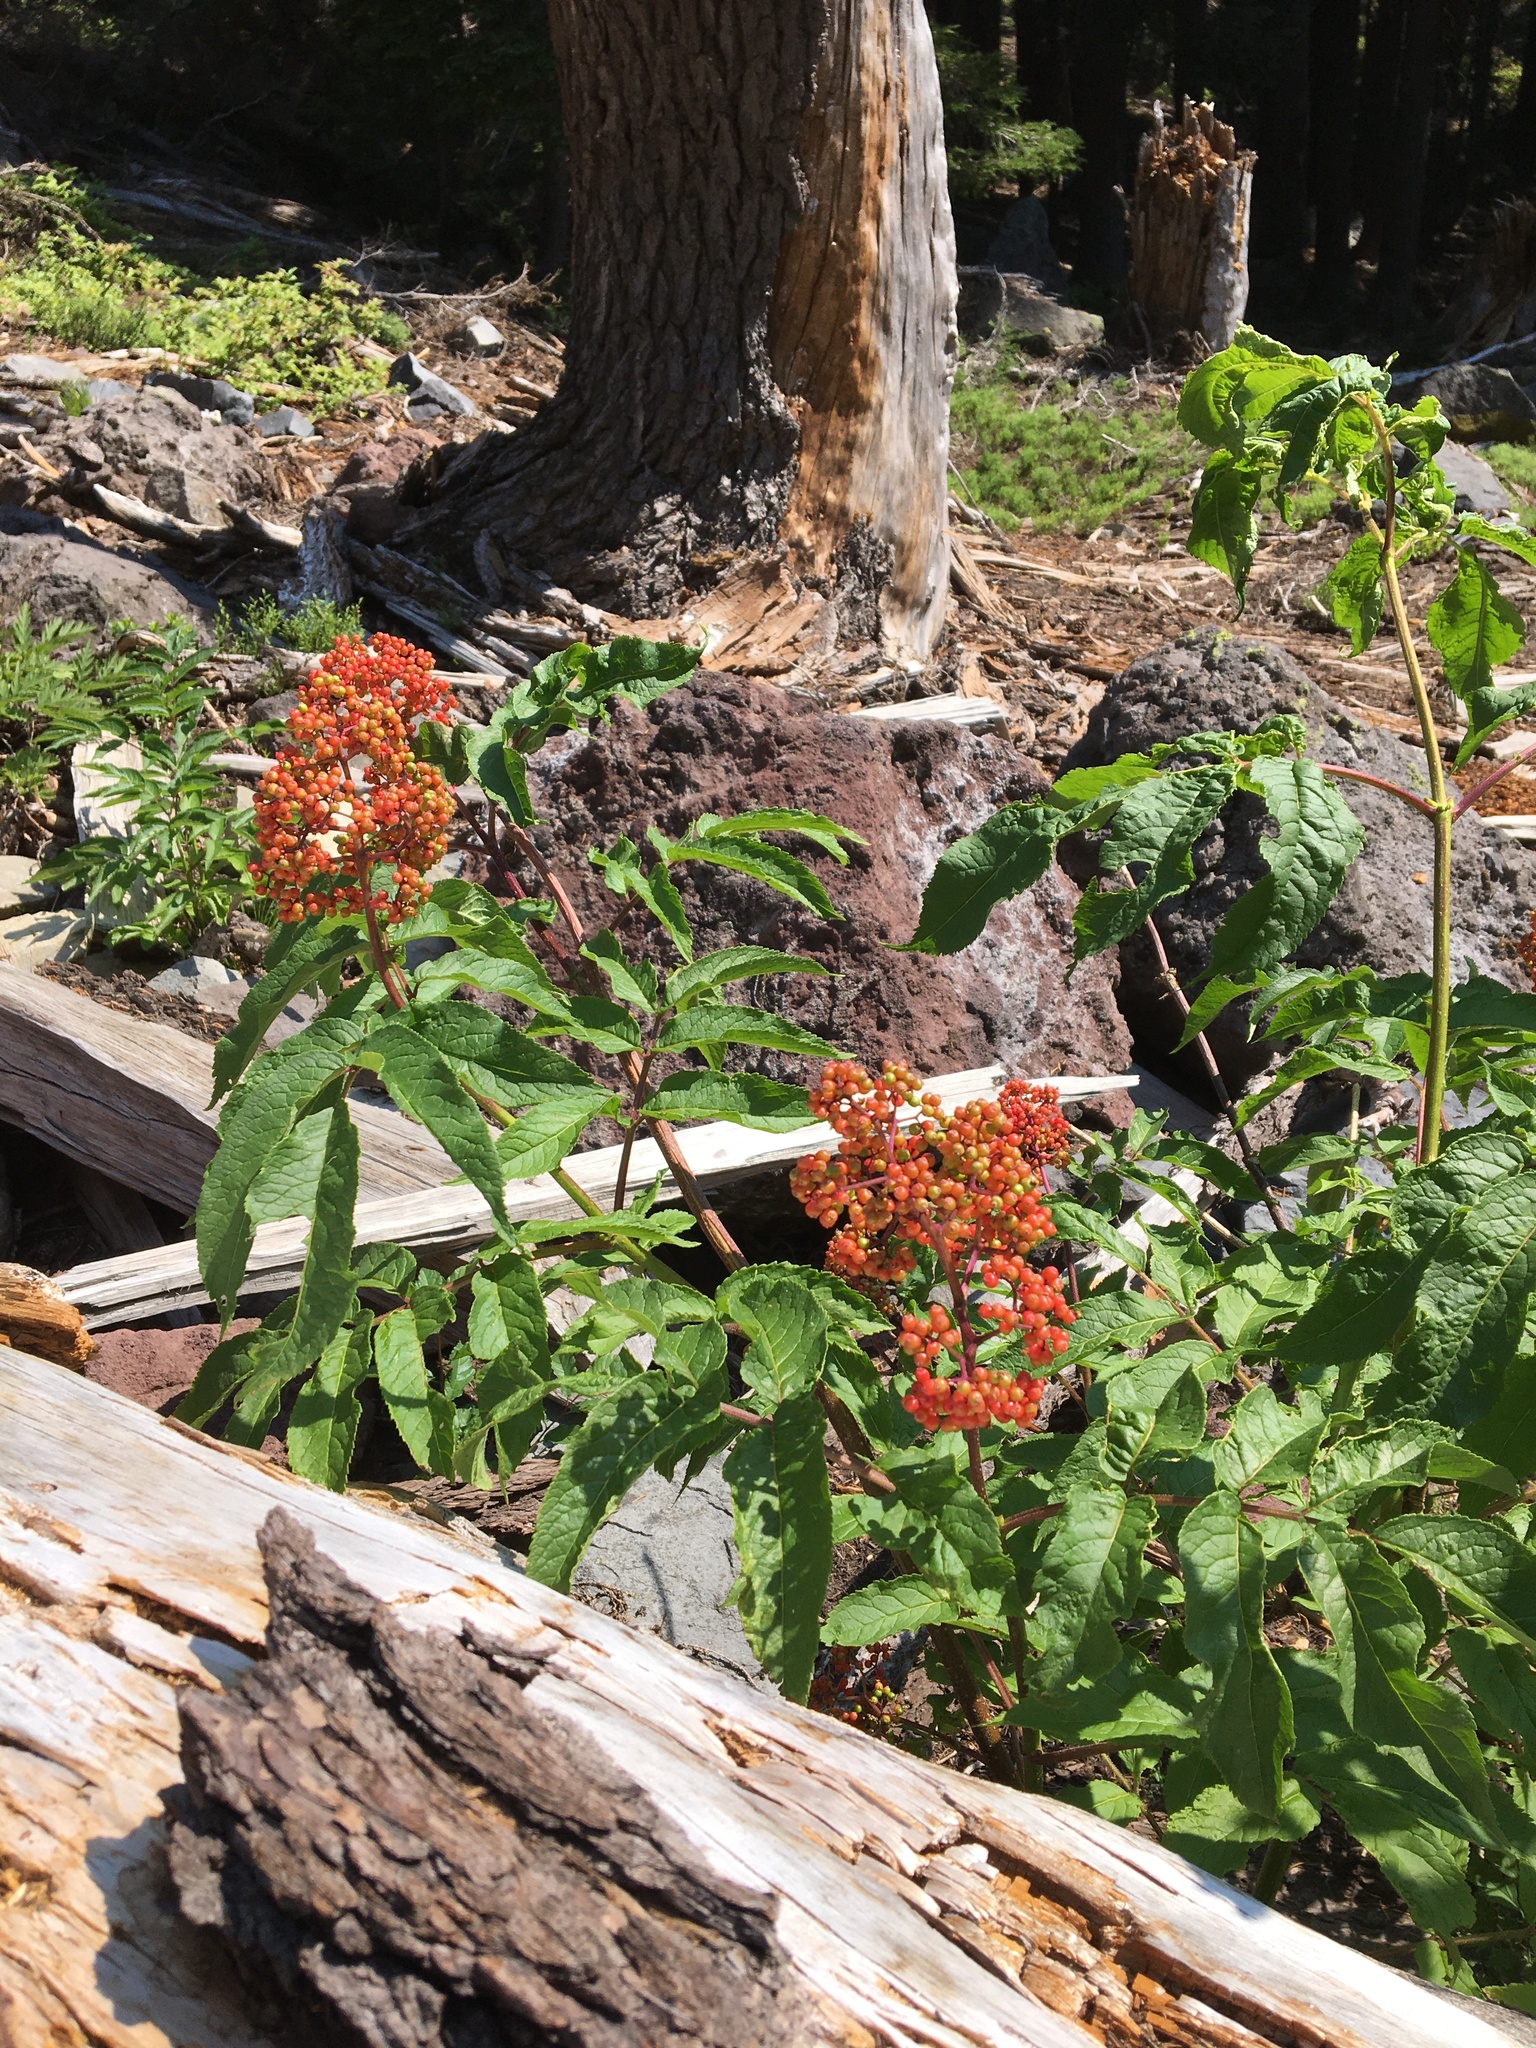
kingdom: Plantae
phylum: Tracheophyta
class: Magnoliopsida
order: Dipsacales
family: Viburnaceae
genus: Sambucus
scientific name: Sambucus racemosa
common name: Red-berried elder
